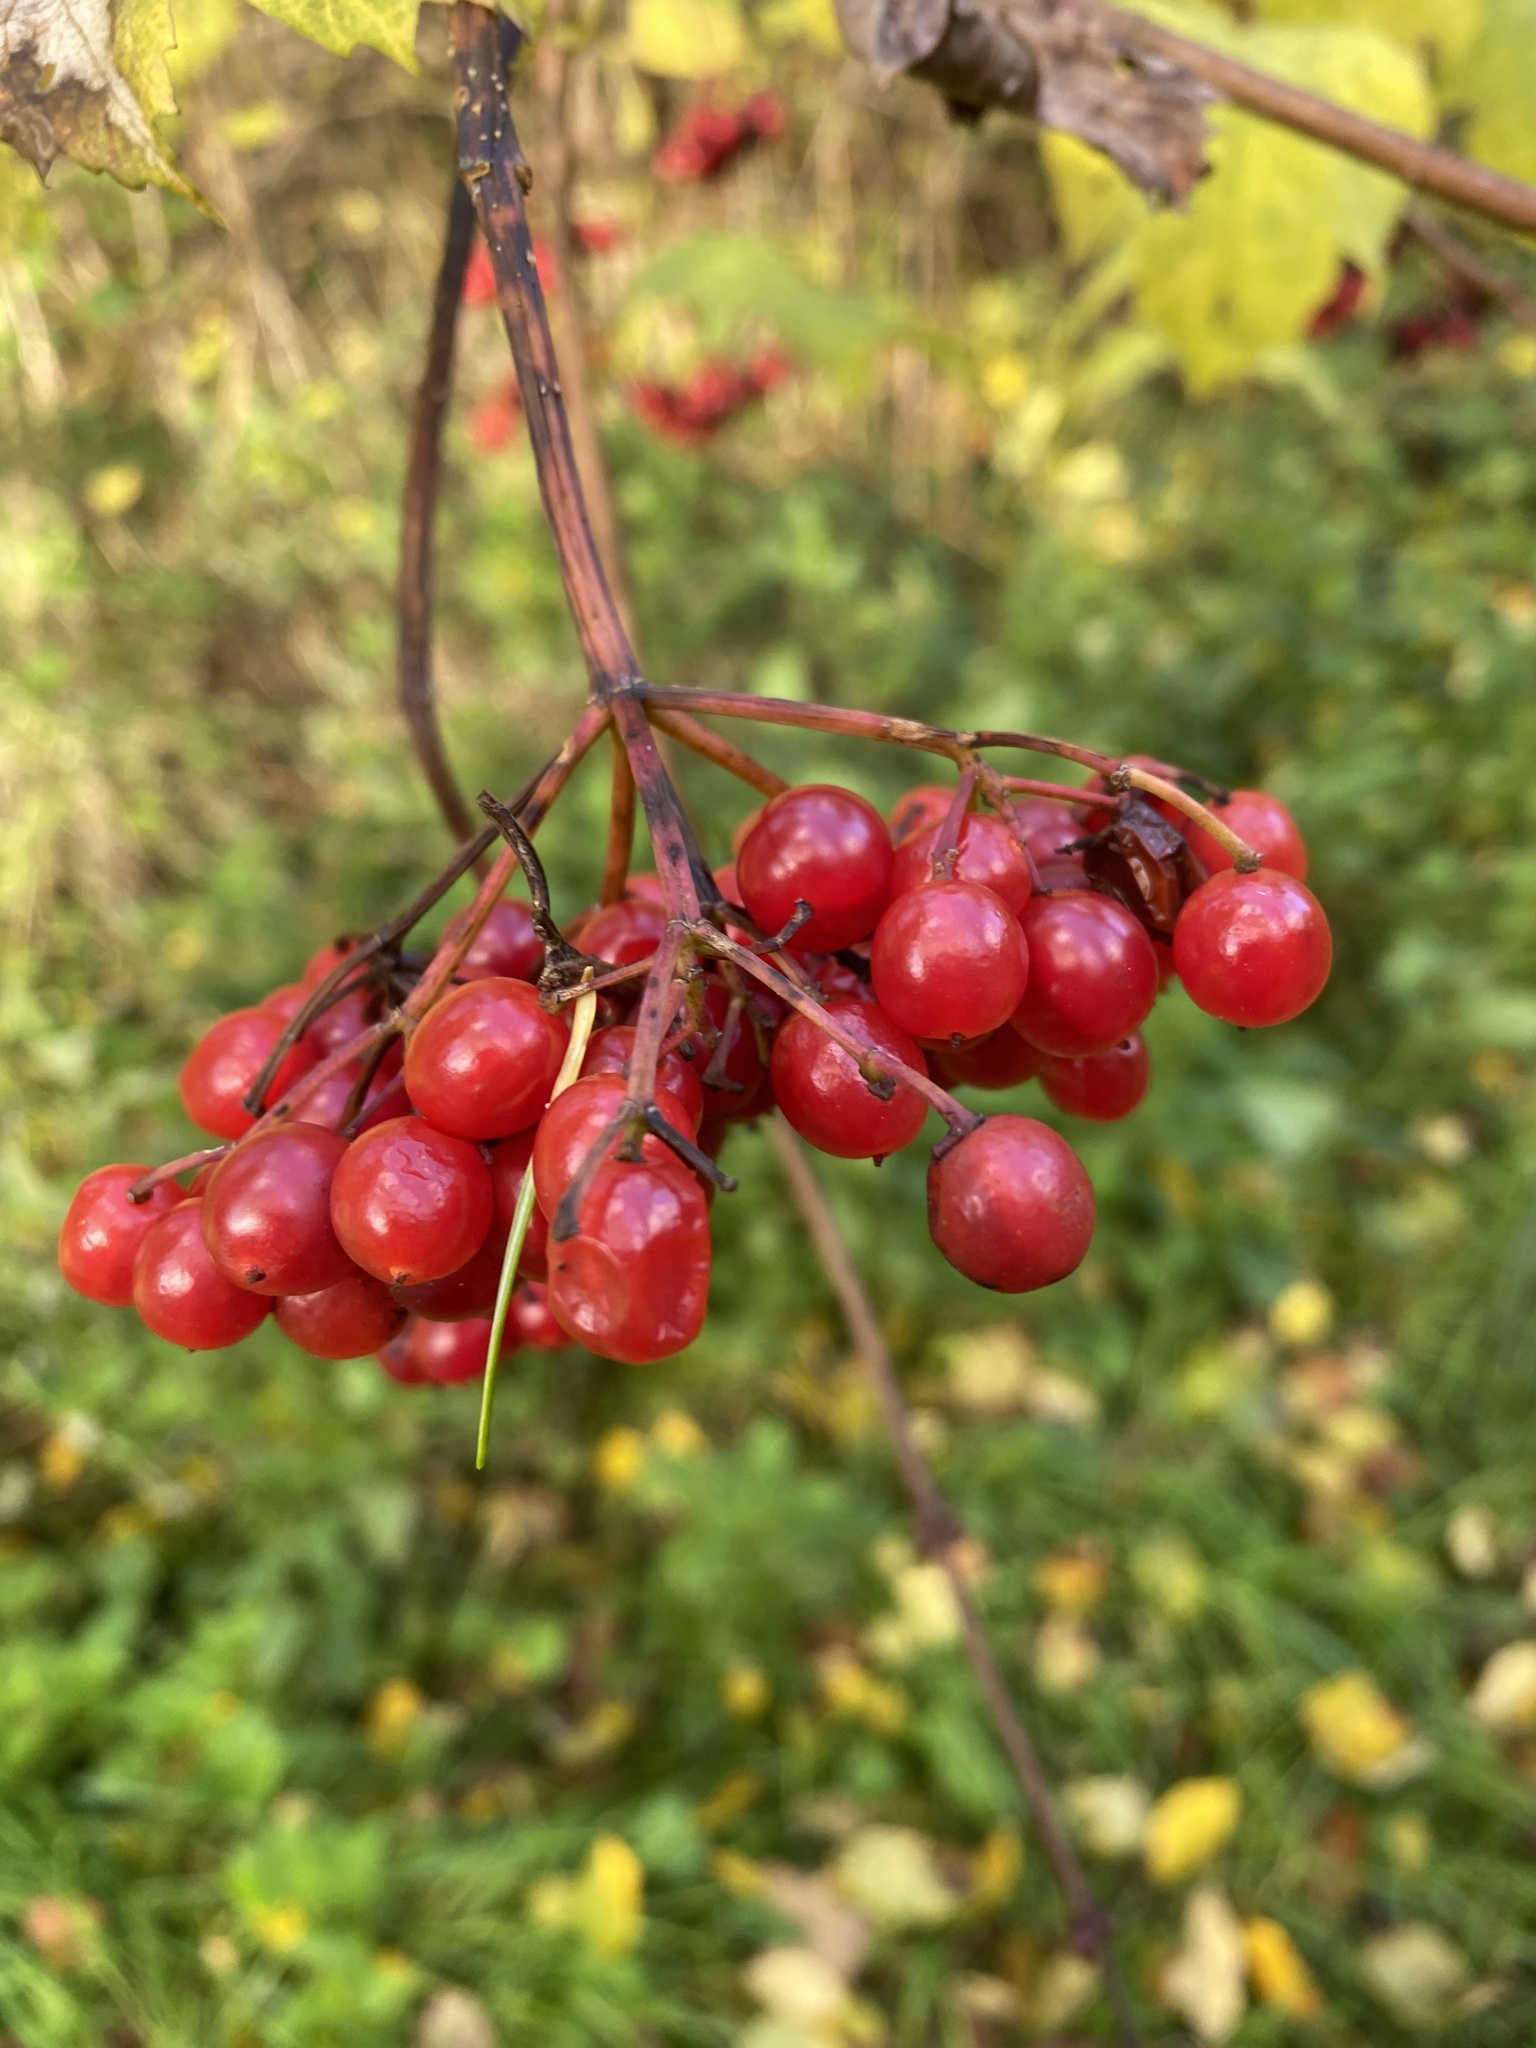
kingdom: Plantae
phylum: Tracheophyta
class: Magnoliopsida
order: Dipsacales
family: Viburnaceae
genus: Viburnum
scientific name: Viburnum opulus
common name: Guelder-rose
